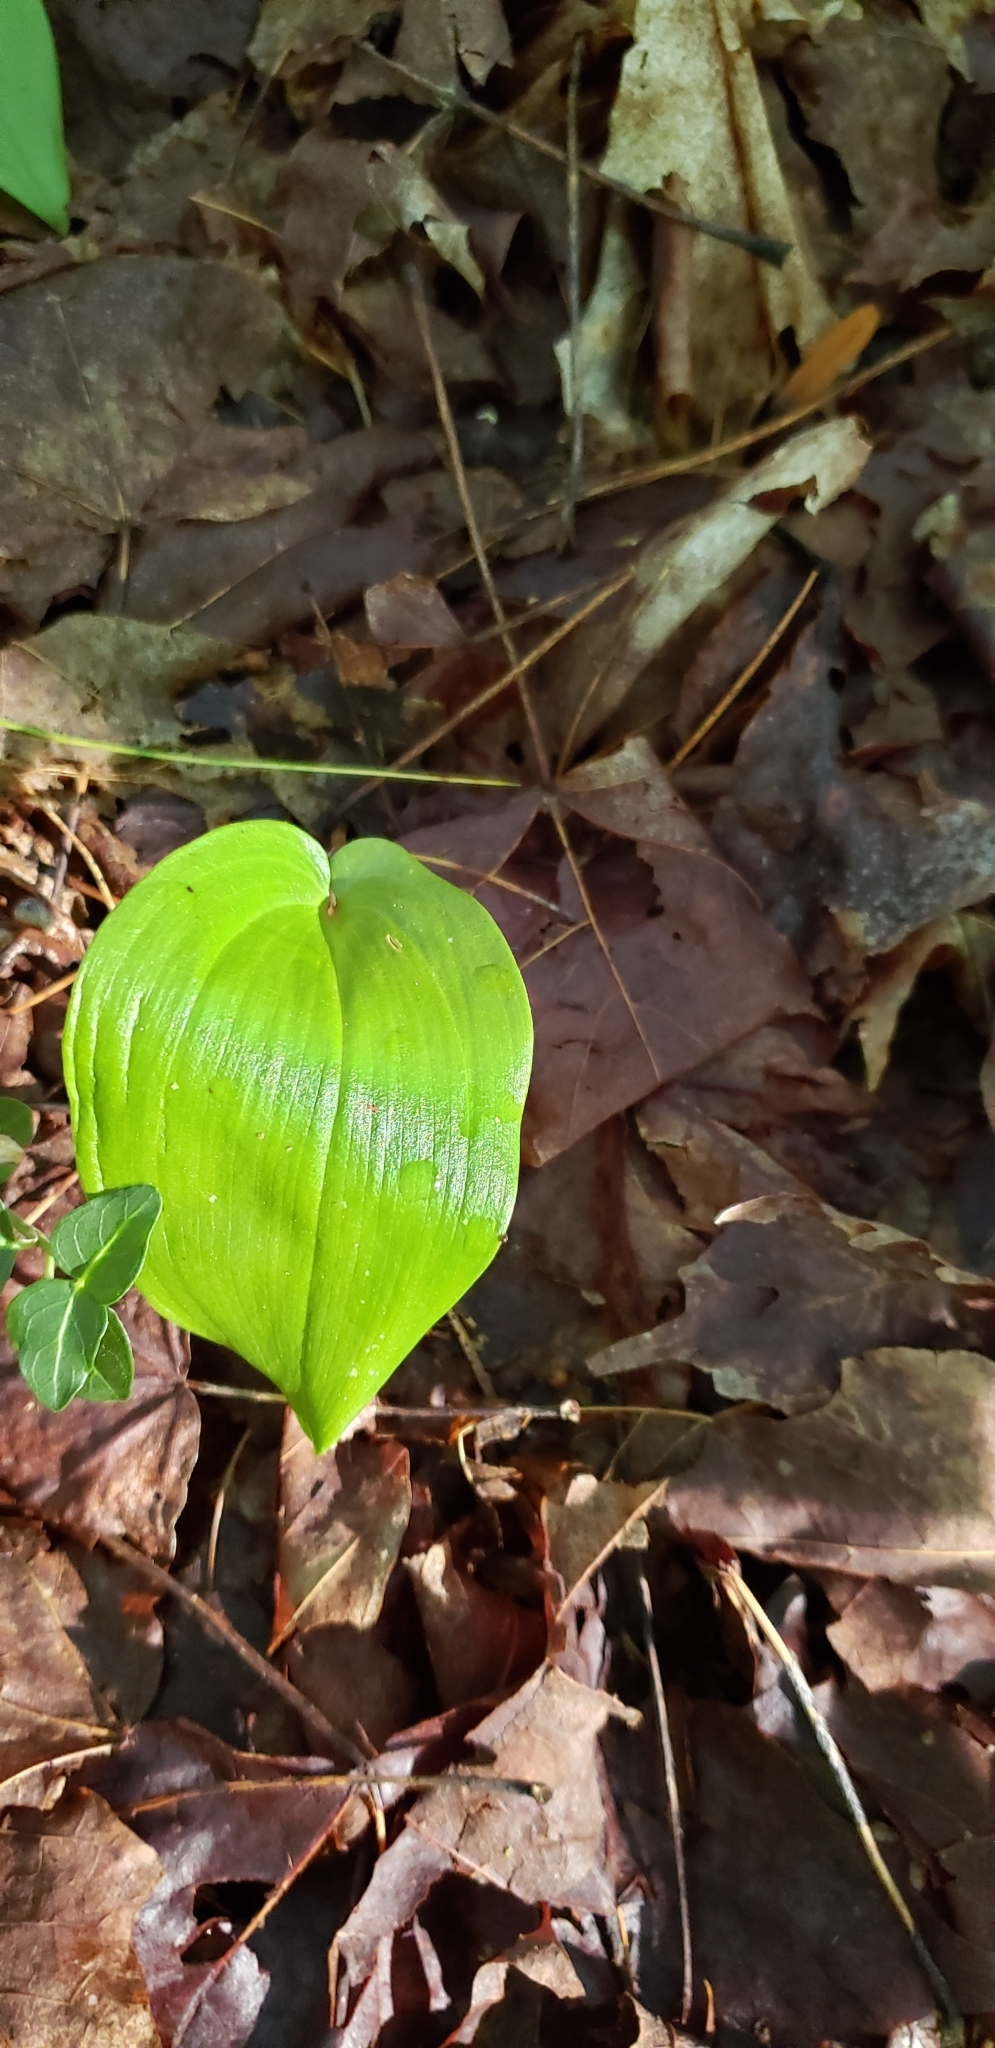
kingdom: Plantae
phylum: Tracheophyta
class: Liliopsida
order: Asparagales
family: Asparagaceae
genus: Maianthemum
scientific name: Maianthemum canadense
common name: False lily-of-the-valley
